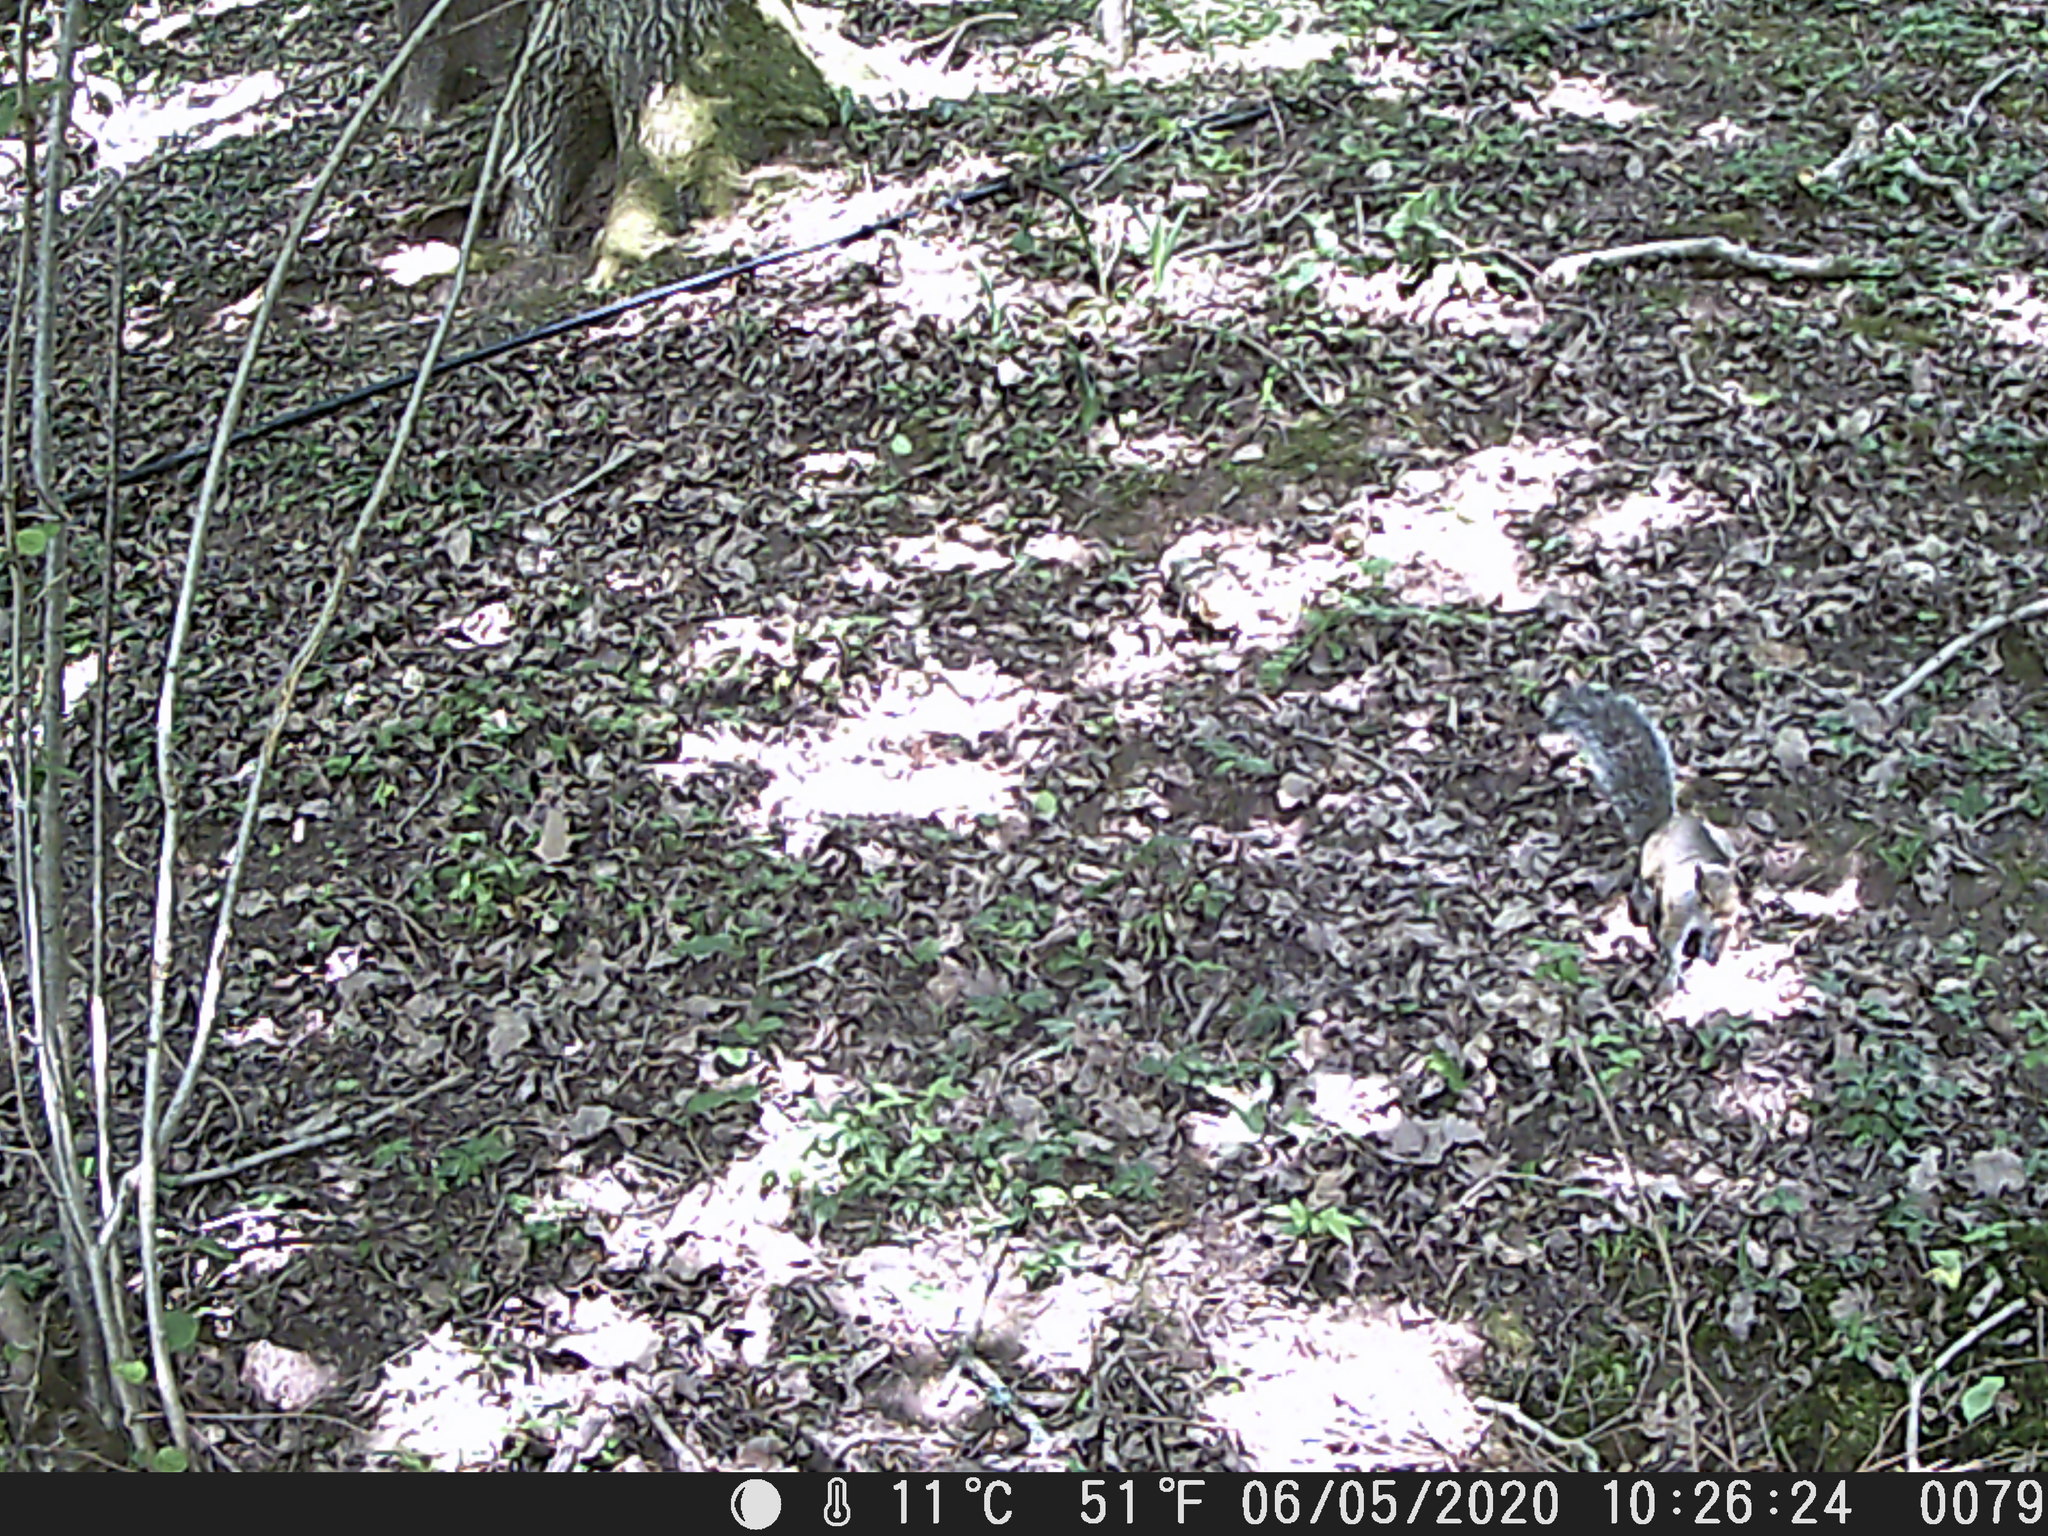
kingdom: Animalia
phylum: Chordata
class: Mammalia
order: Rodentia
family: Sciuridae
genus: Sciurus
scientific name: Sciurus carolinensis
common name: Eastern gray squirrel
